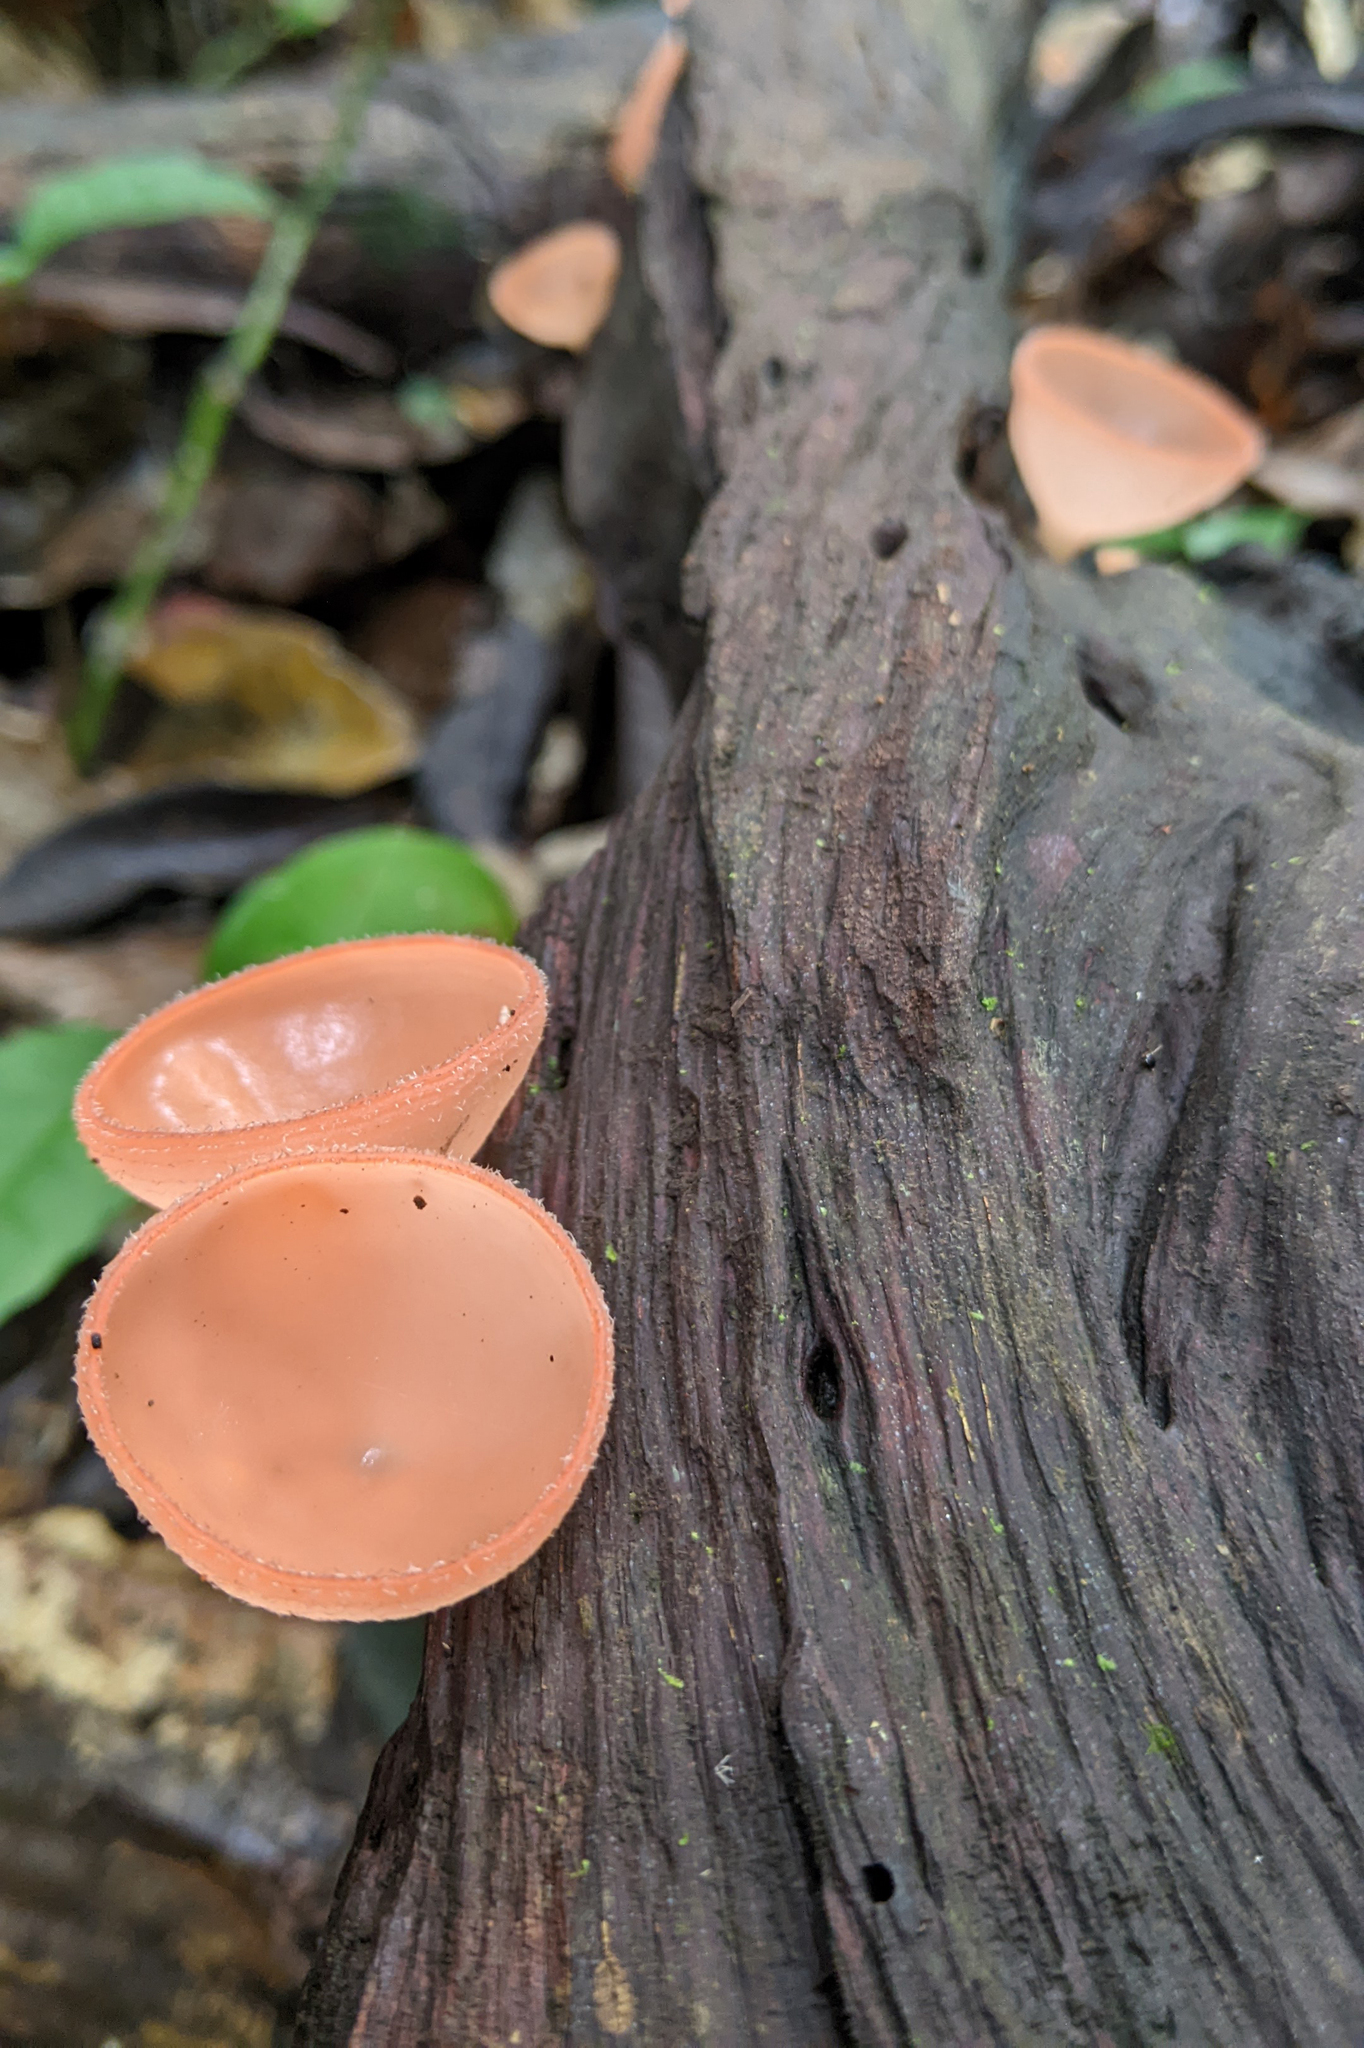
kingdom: Fungi
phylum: Ascomycota
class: Pezizomycetes
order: Pezizales
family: Sarcoscyphaceae
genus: Cookeina
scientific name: Cookeina speciosa
